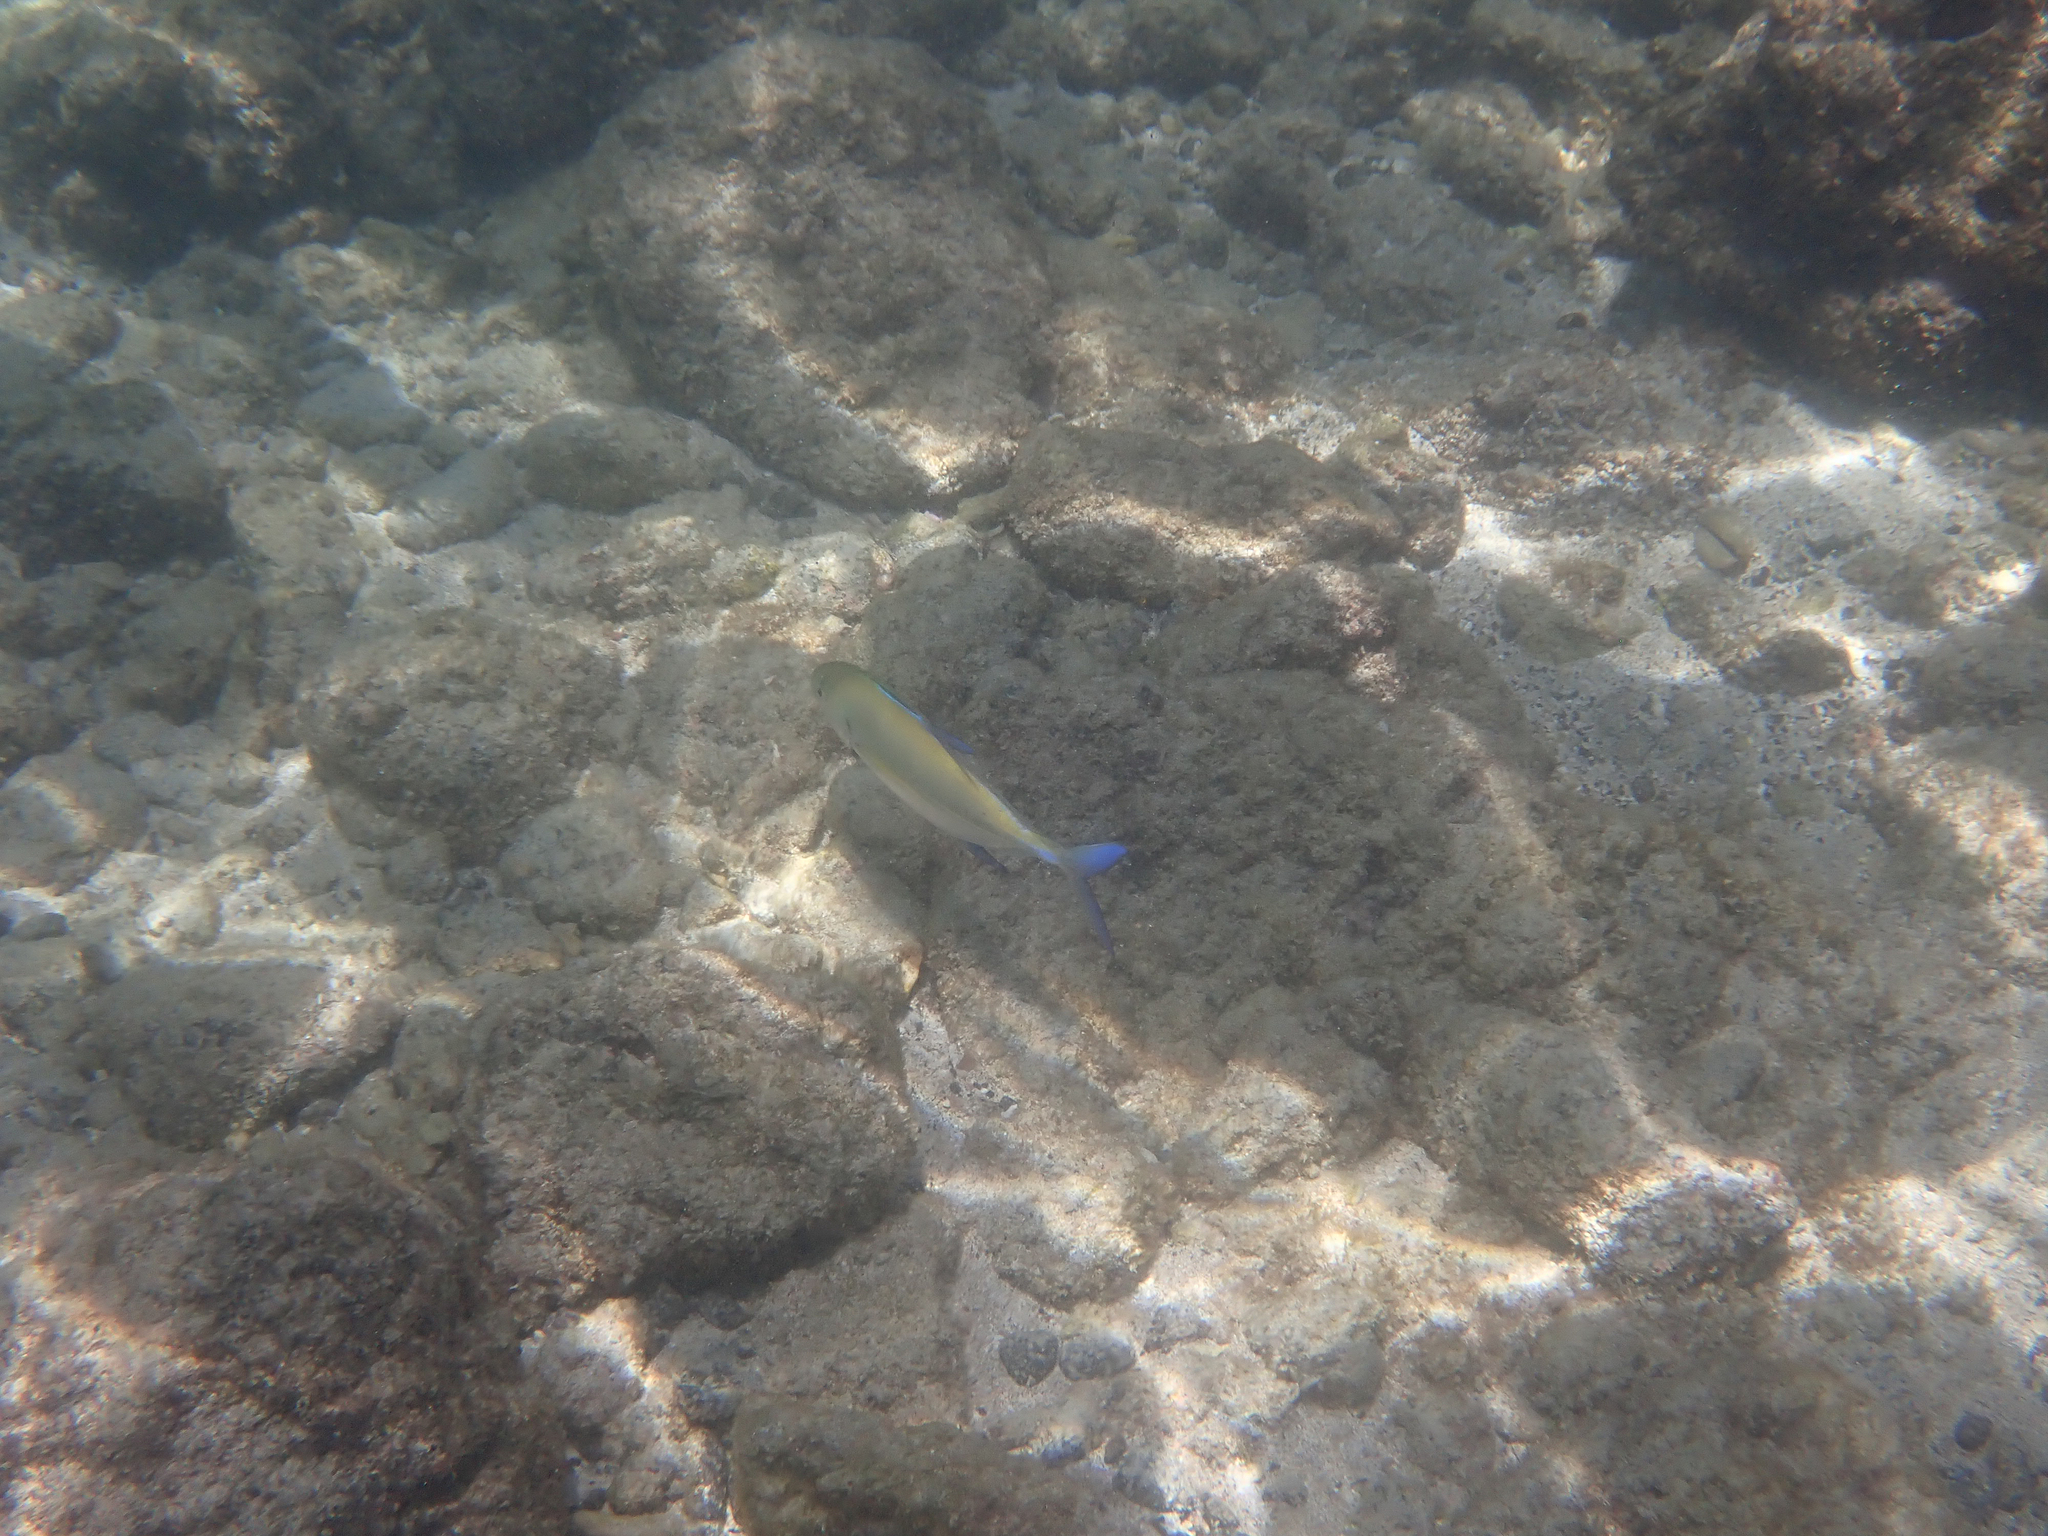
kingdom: Animalia
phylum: Chordata
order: Perciformes
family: Carangidae
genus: Caranx
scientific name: Caranx melampygus
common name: Bluefin trevally
